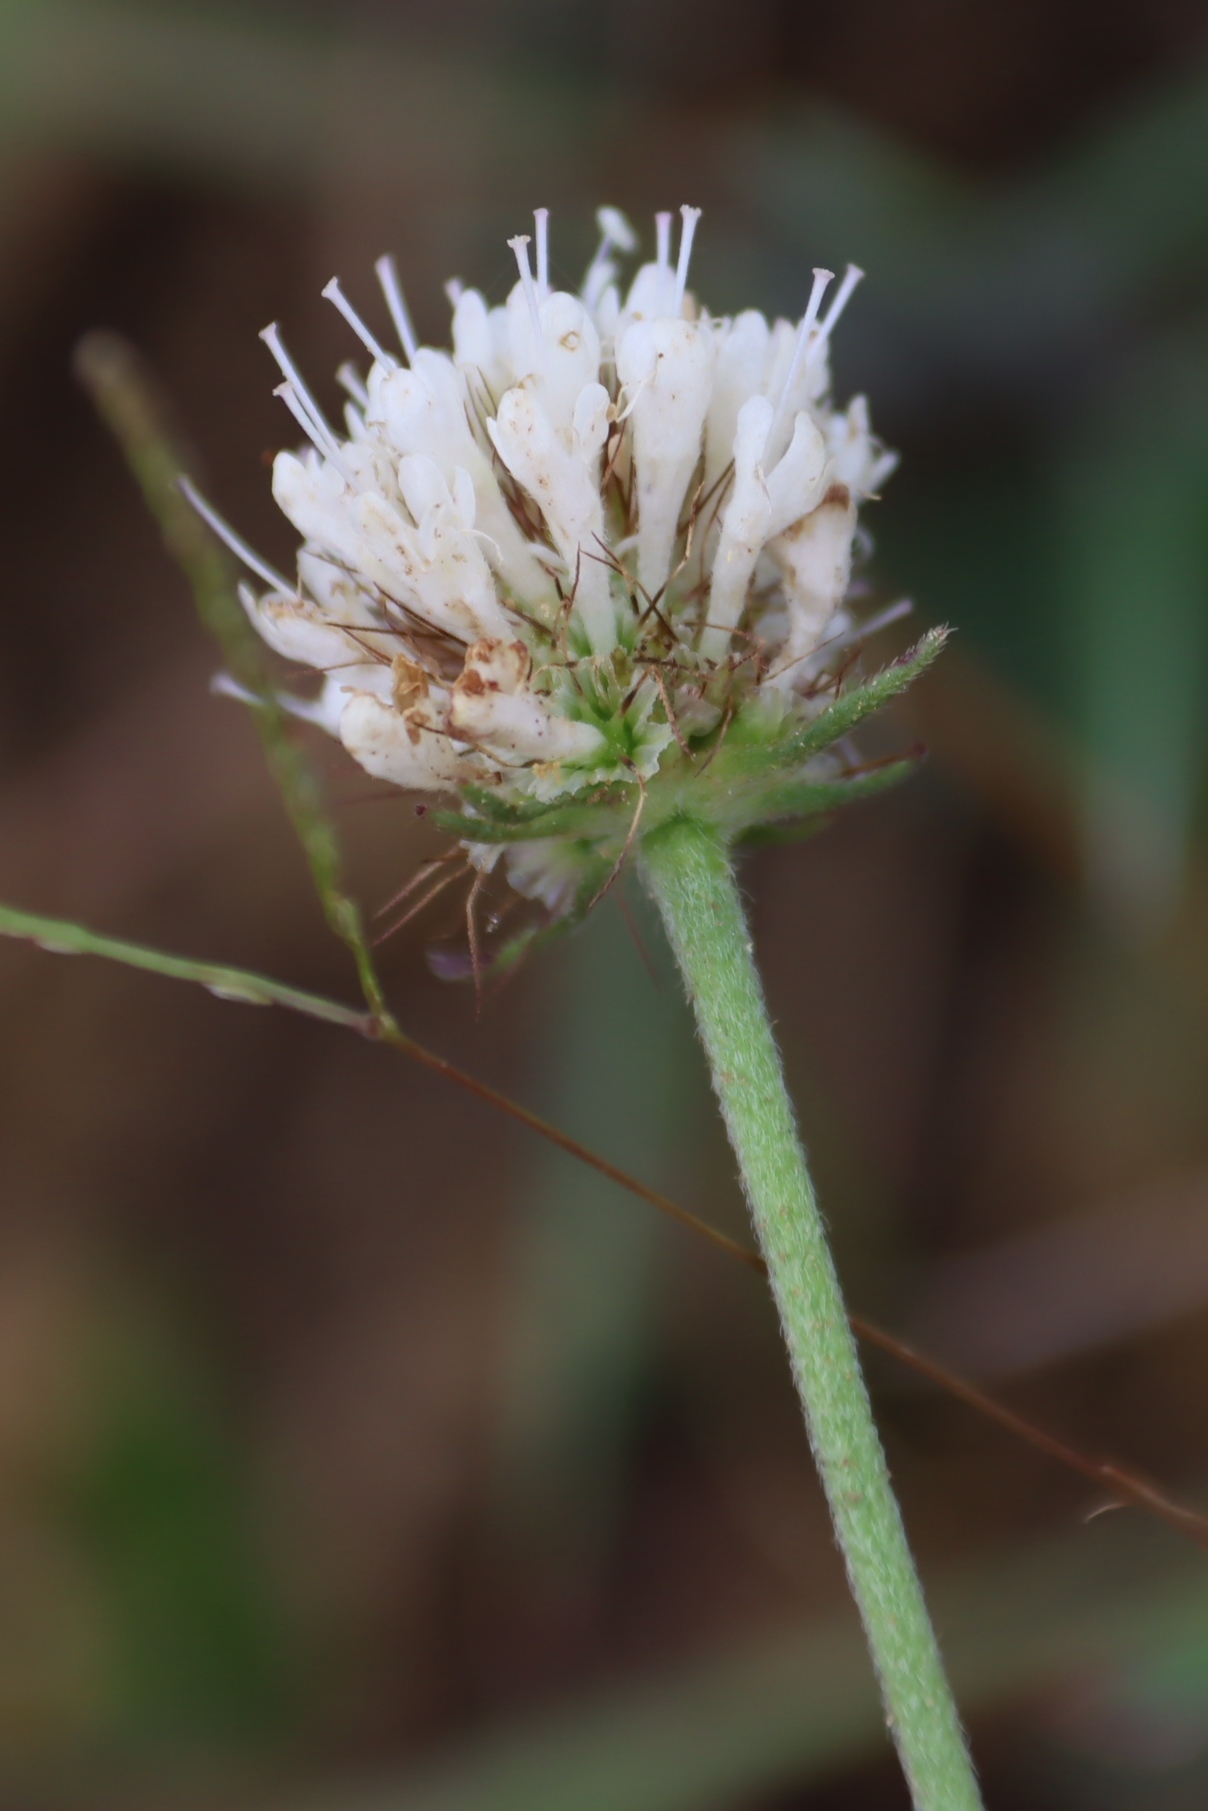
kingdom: Plantae
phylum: Tracheophyta
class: Magnoliopsida
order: Dipsacales
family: Caprifoliaceae
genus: Scabiosa
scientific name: Scabiosa columbaria
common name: Small scabious
